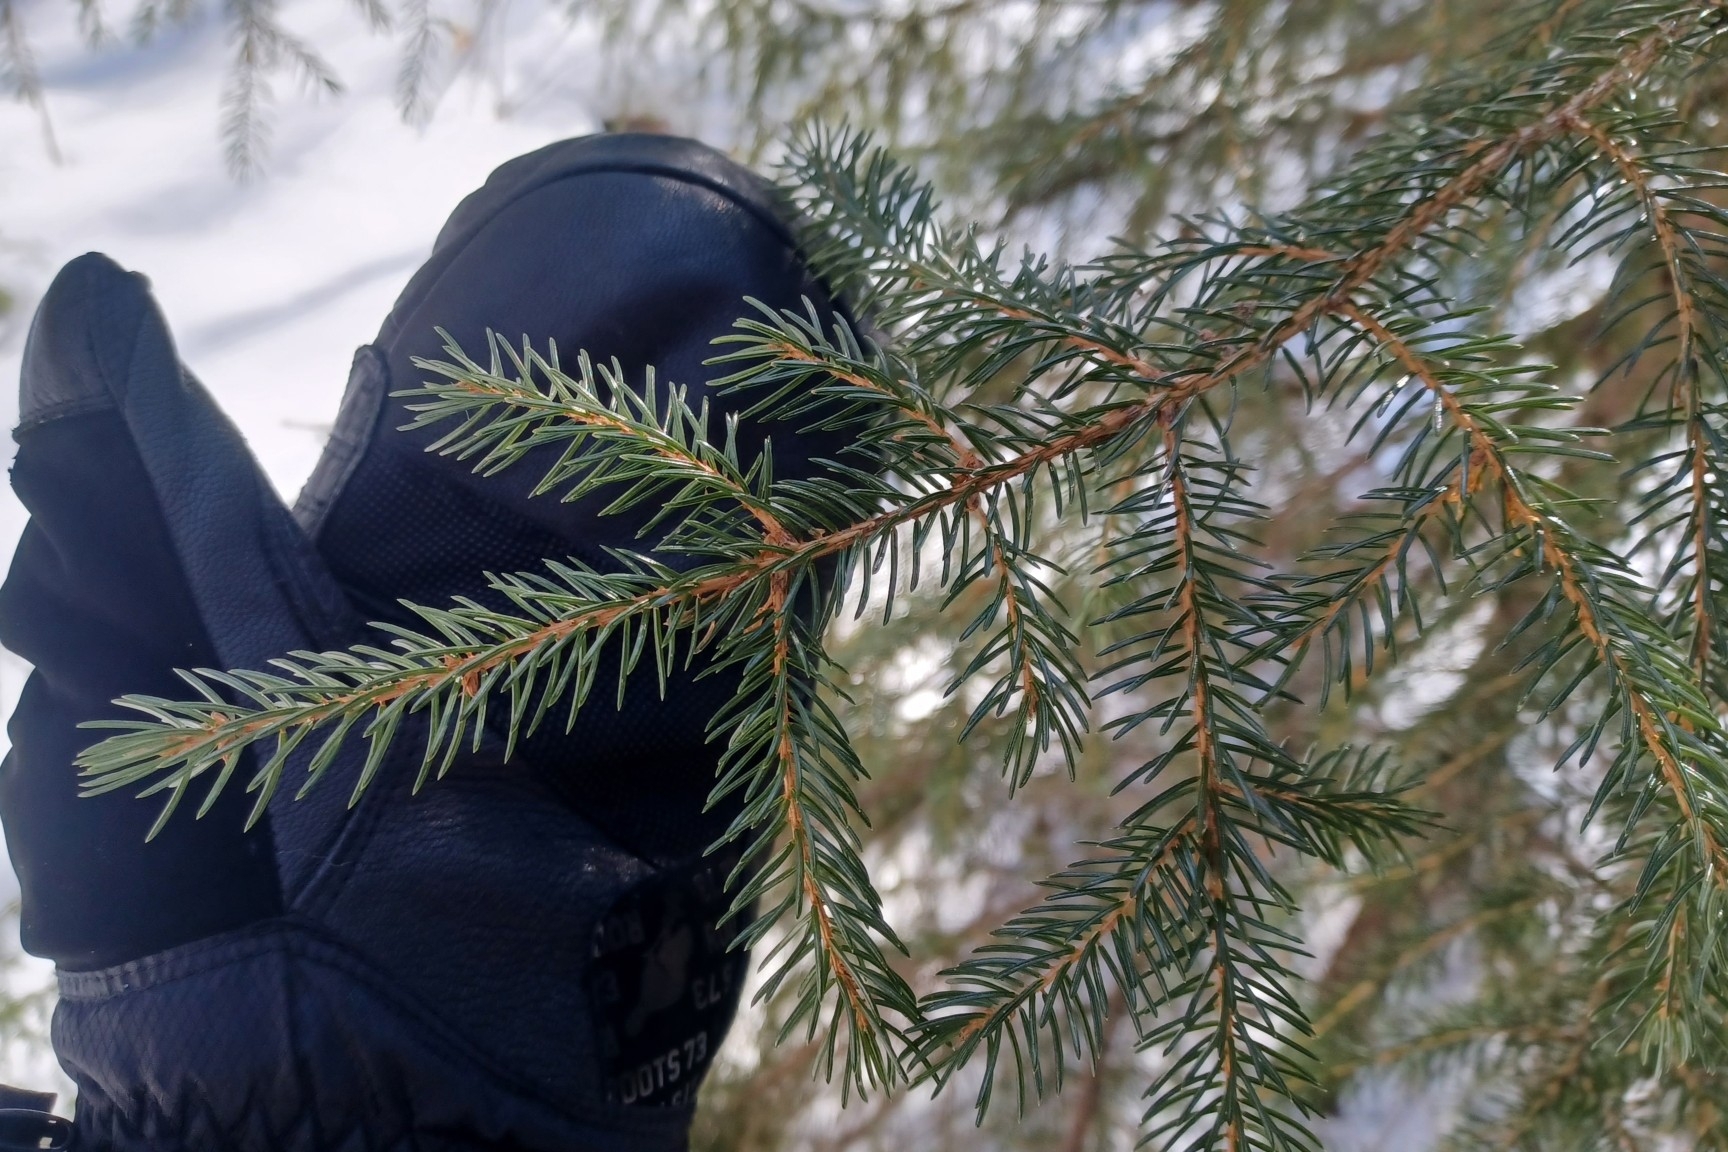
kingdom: Plantae
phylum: Tracheophyta
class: Pinopsida
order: Pinales
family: Pinaceae
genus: Picea
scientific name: Picea rubens
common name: Red spruce
